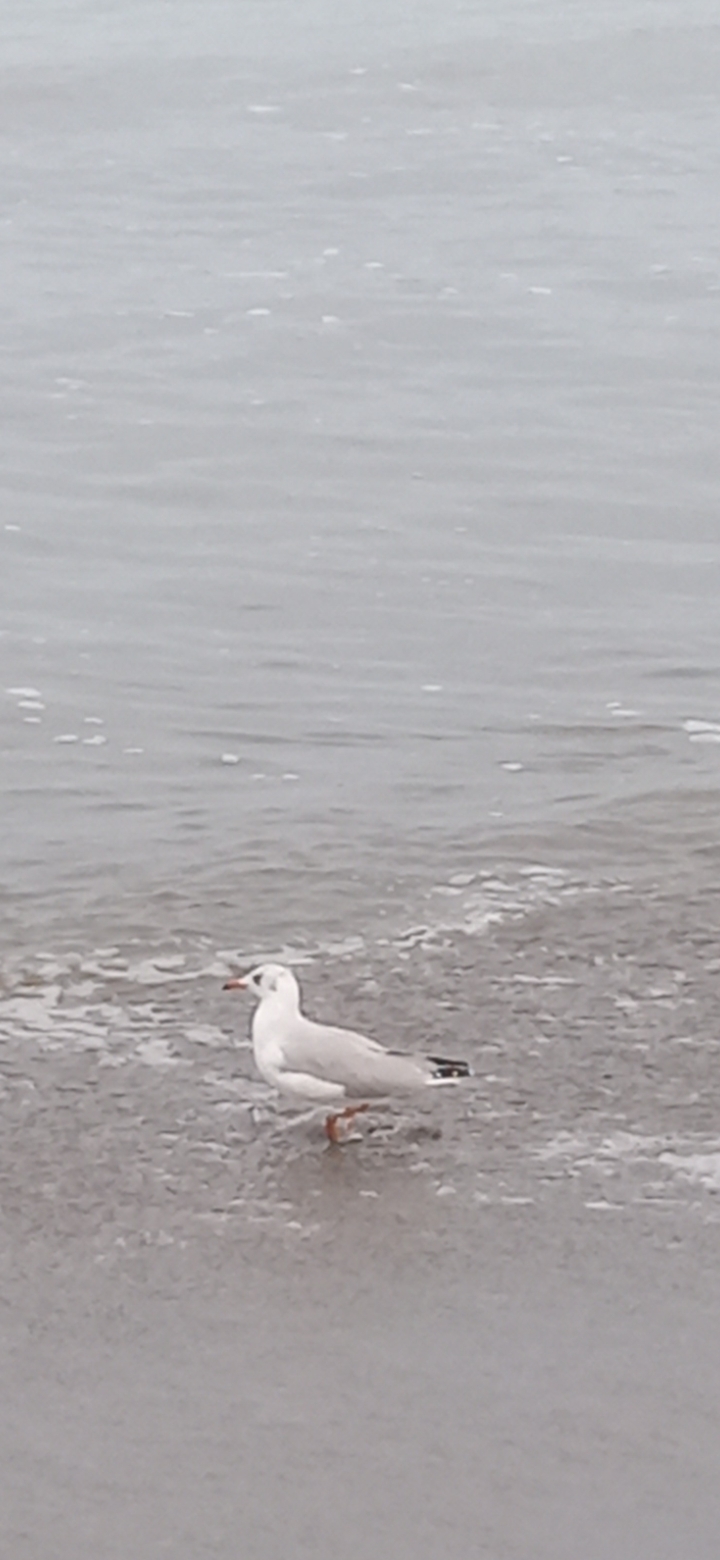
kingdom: Animalia
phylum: Chordata
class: Aves
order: Charadriiformes
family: Laridae
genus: Chroicocephalus
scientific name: Chroicocephalus cirrocephalus
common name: Grey-headed gull
